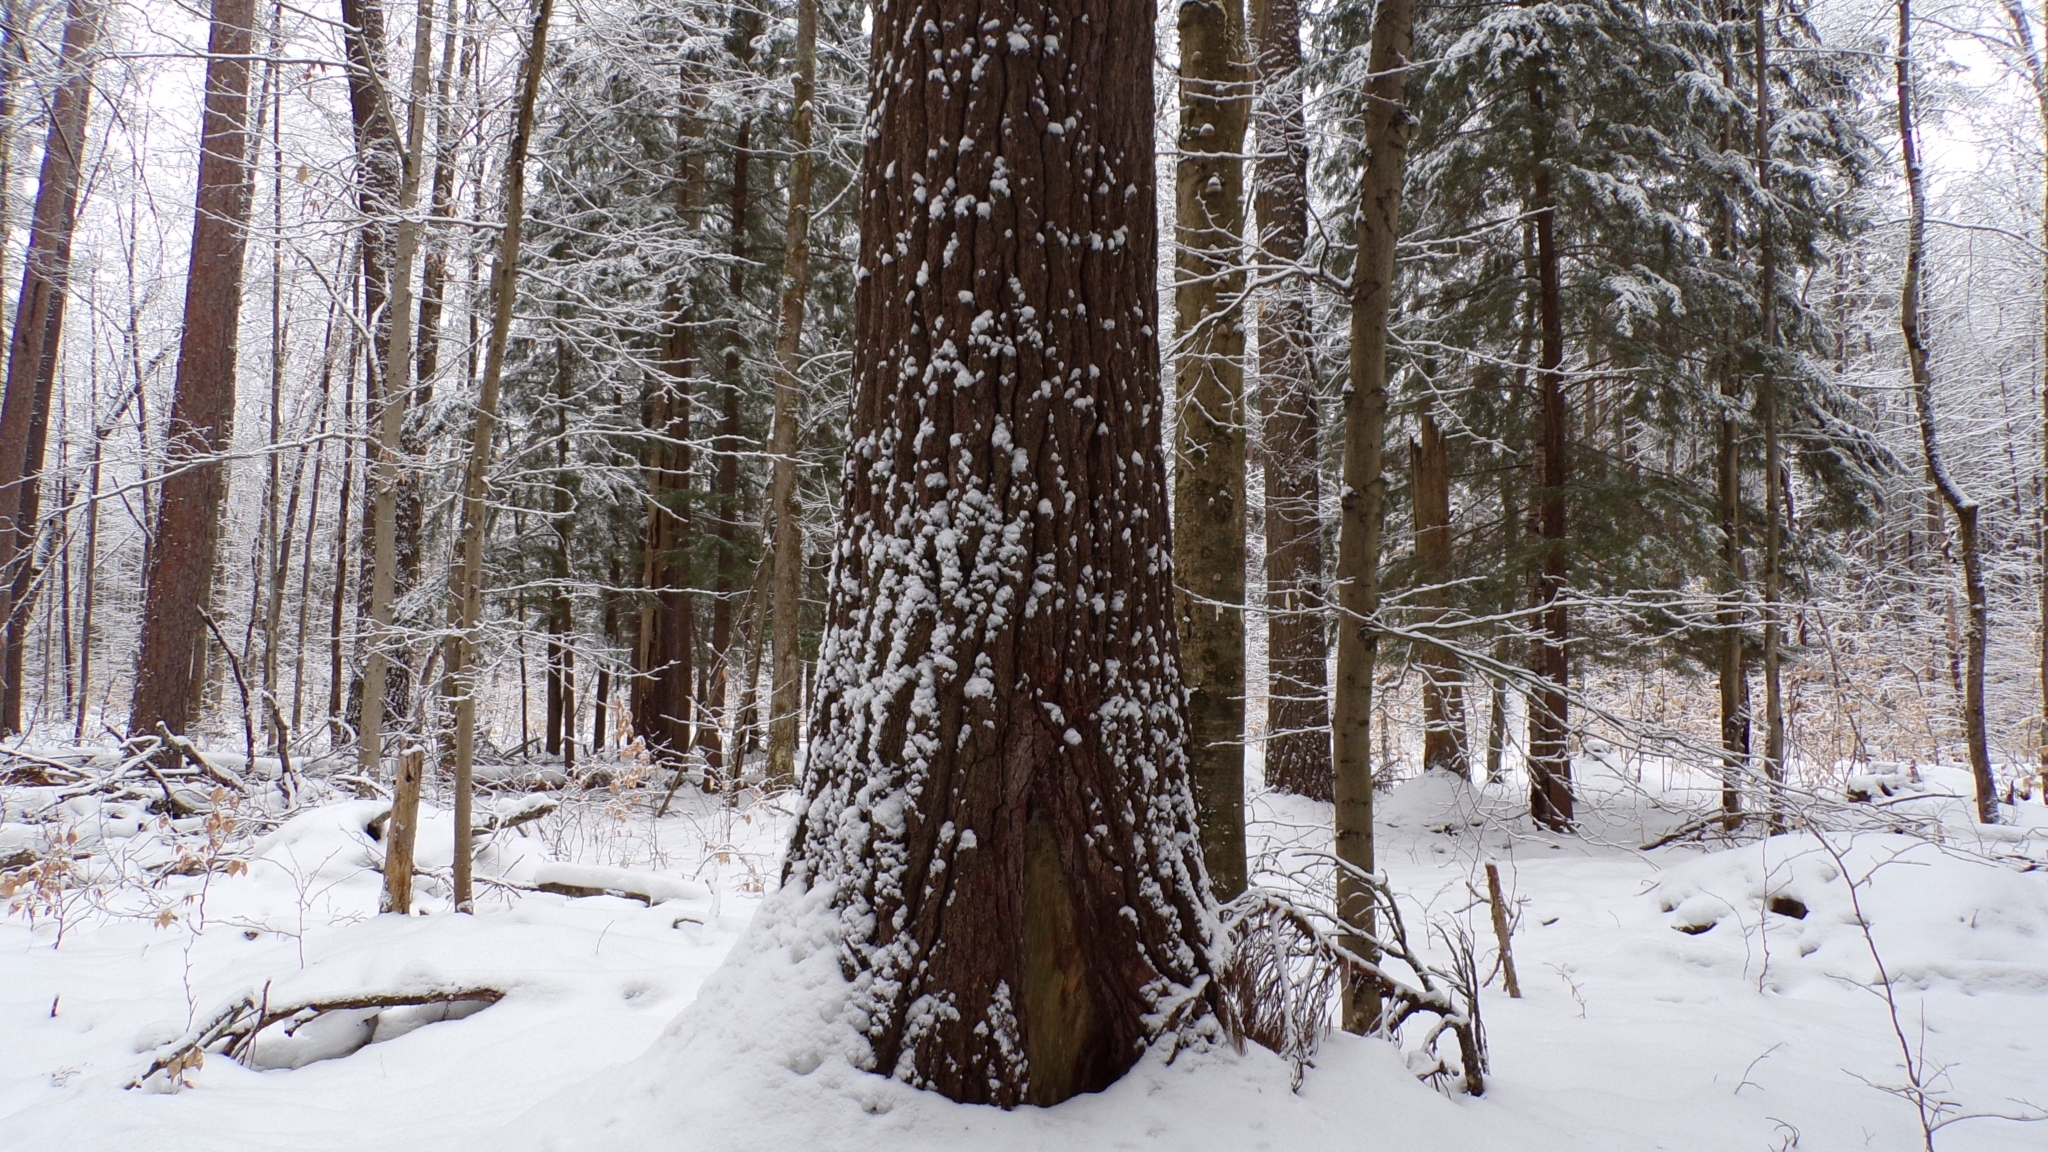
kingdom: Plantae
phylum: Tracheophyta
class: Pinopsida
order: Pinales
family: Pinaceae
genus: Pinus
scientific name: Pinus strobus
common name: Weymouth pine
